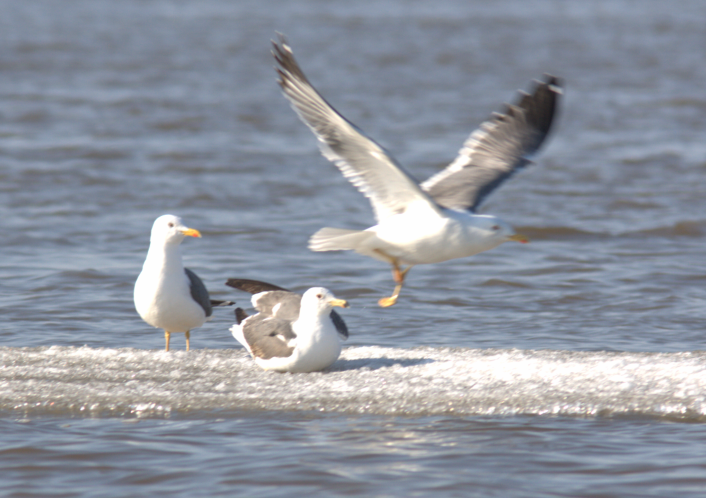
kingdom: Animalia
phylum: Chordata
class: Aves
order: Charadriiformes
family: Laridae
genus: Larus
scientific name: Larus fuscus
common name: Lesser black-backed gull
